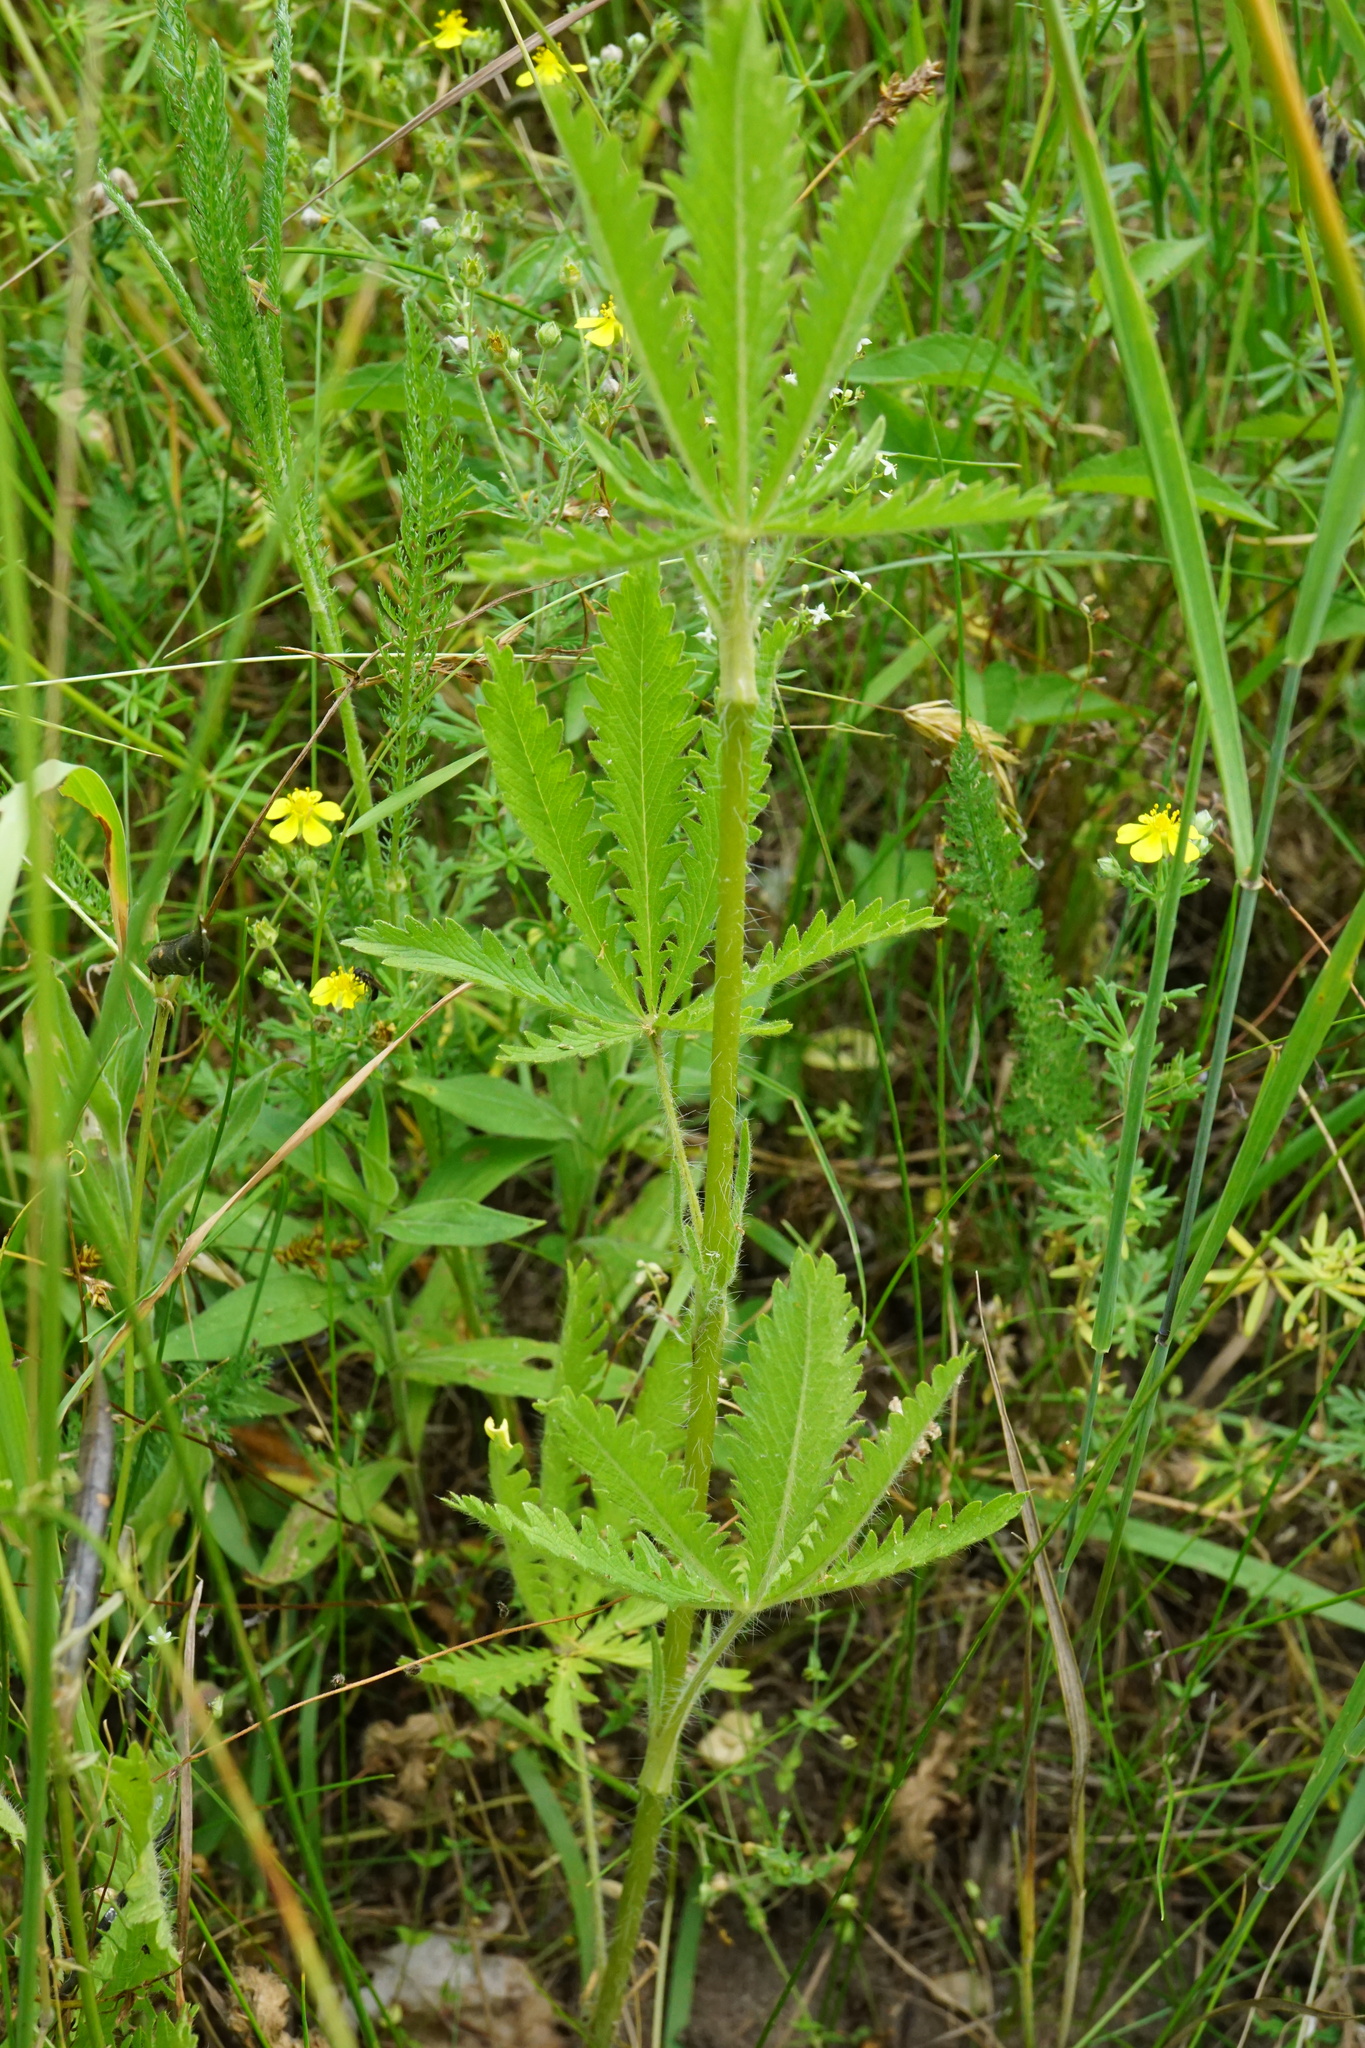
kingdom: Plantae
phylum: Tracheophyta
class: Magnoliopsida
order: Rosales
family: Rosaceae
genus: Potentilla
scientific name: Potentilla recta
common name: Sulphur cinquefoil
